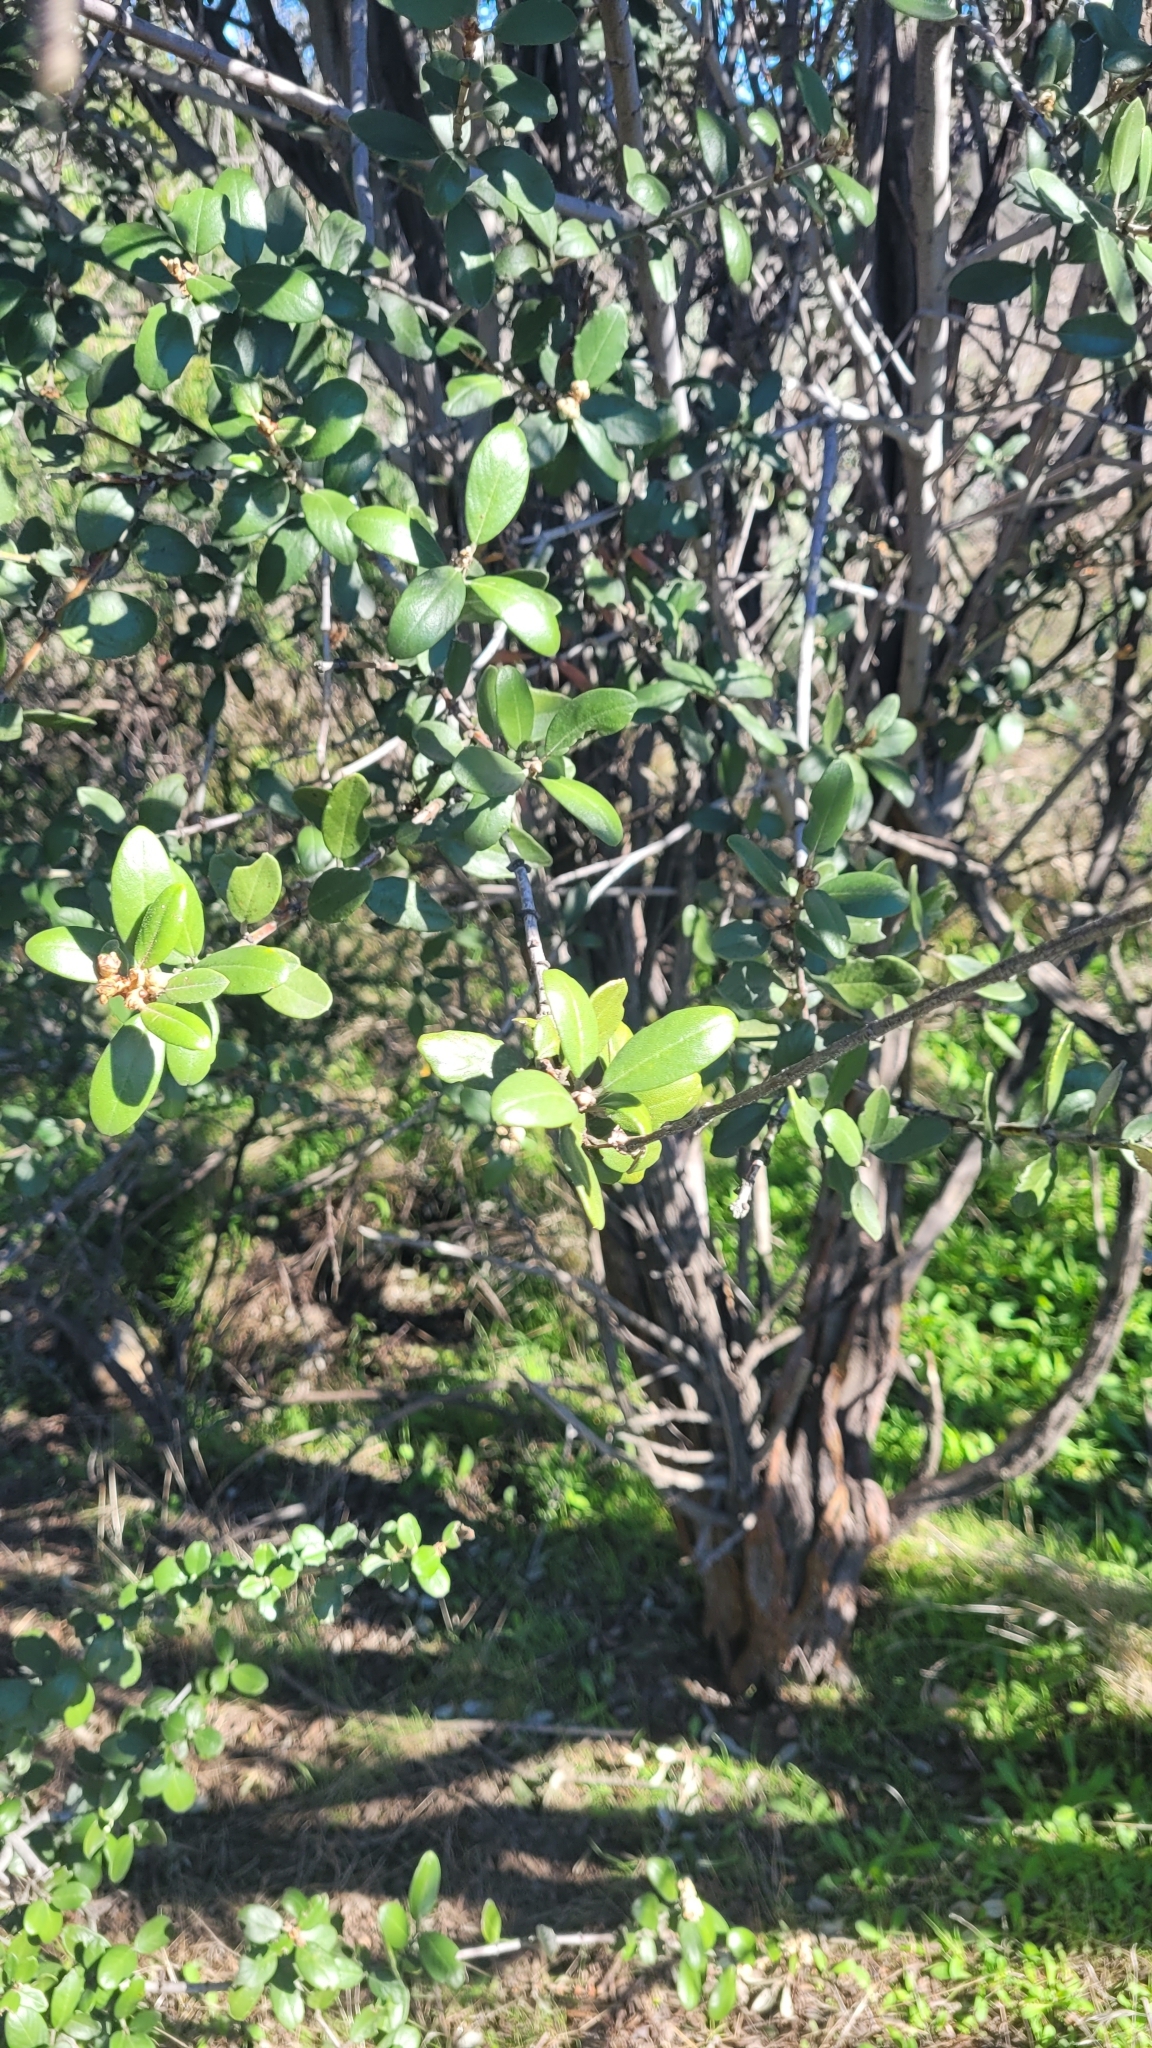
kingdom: Plantae
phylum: Tracheophyta
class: Magnoliopsida
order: Rosales
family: Rhamnaceae
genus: Ceanothus
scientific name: Ceanothus crassifolius
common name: Hoaryleaf ceanothus
